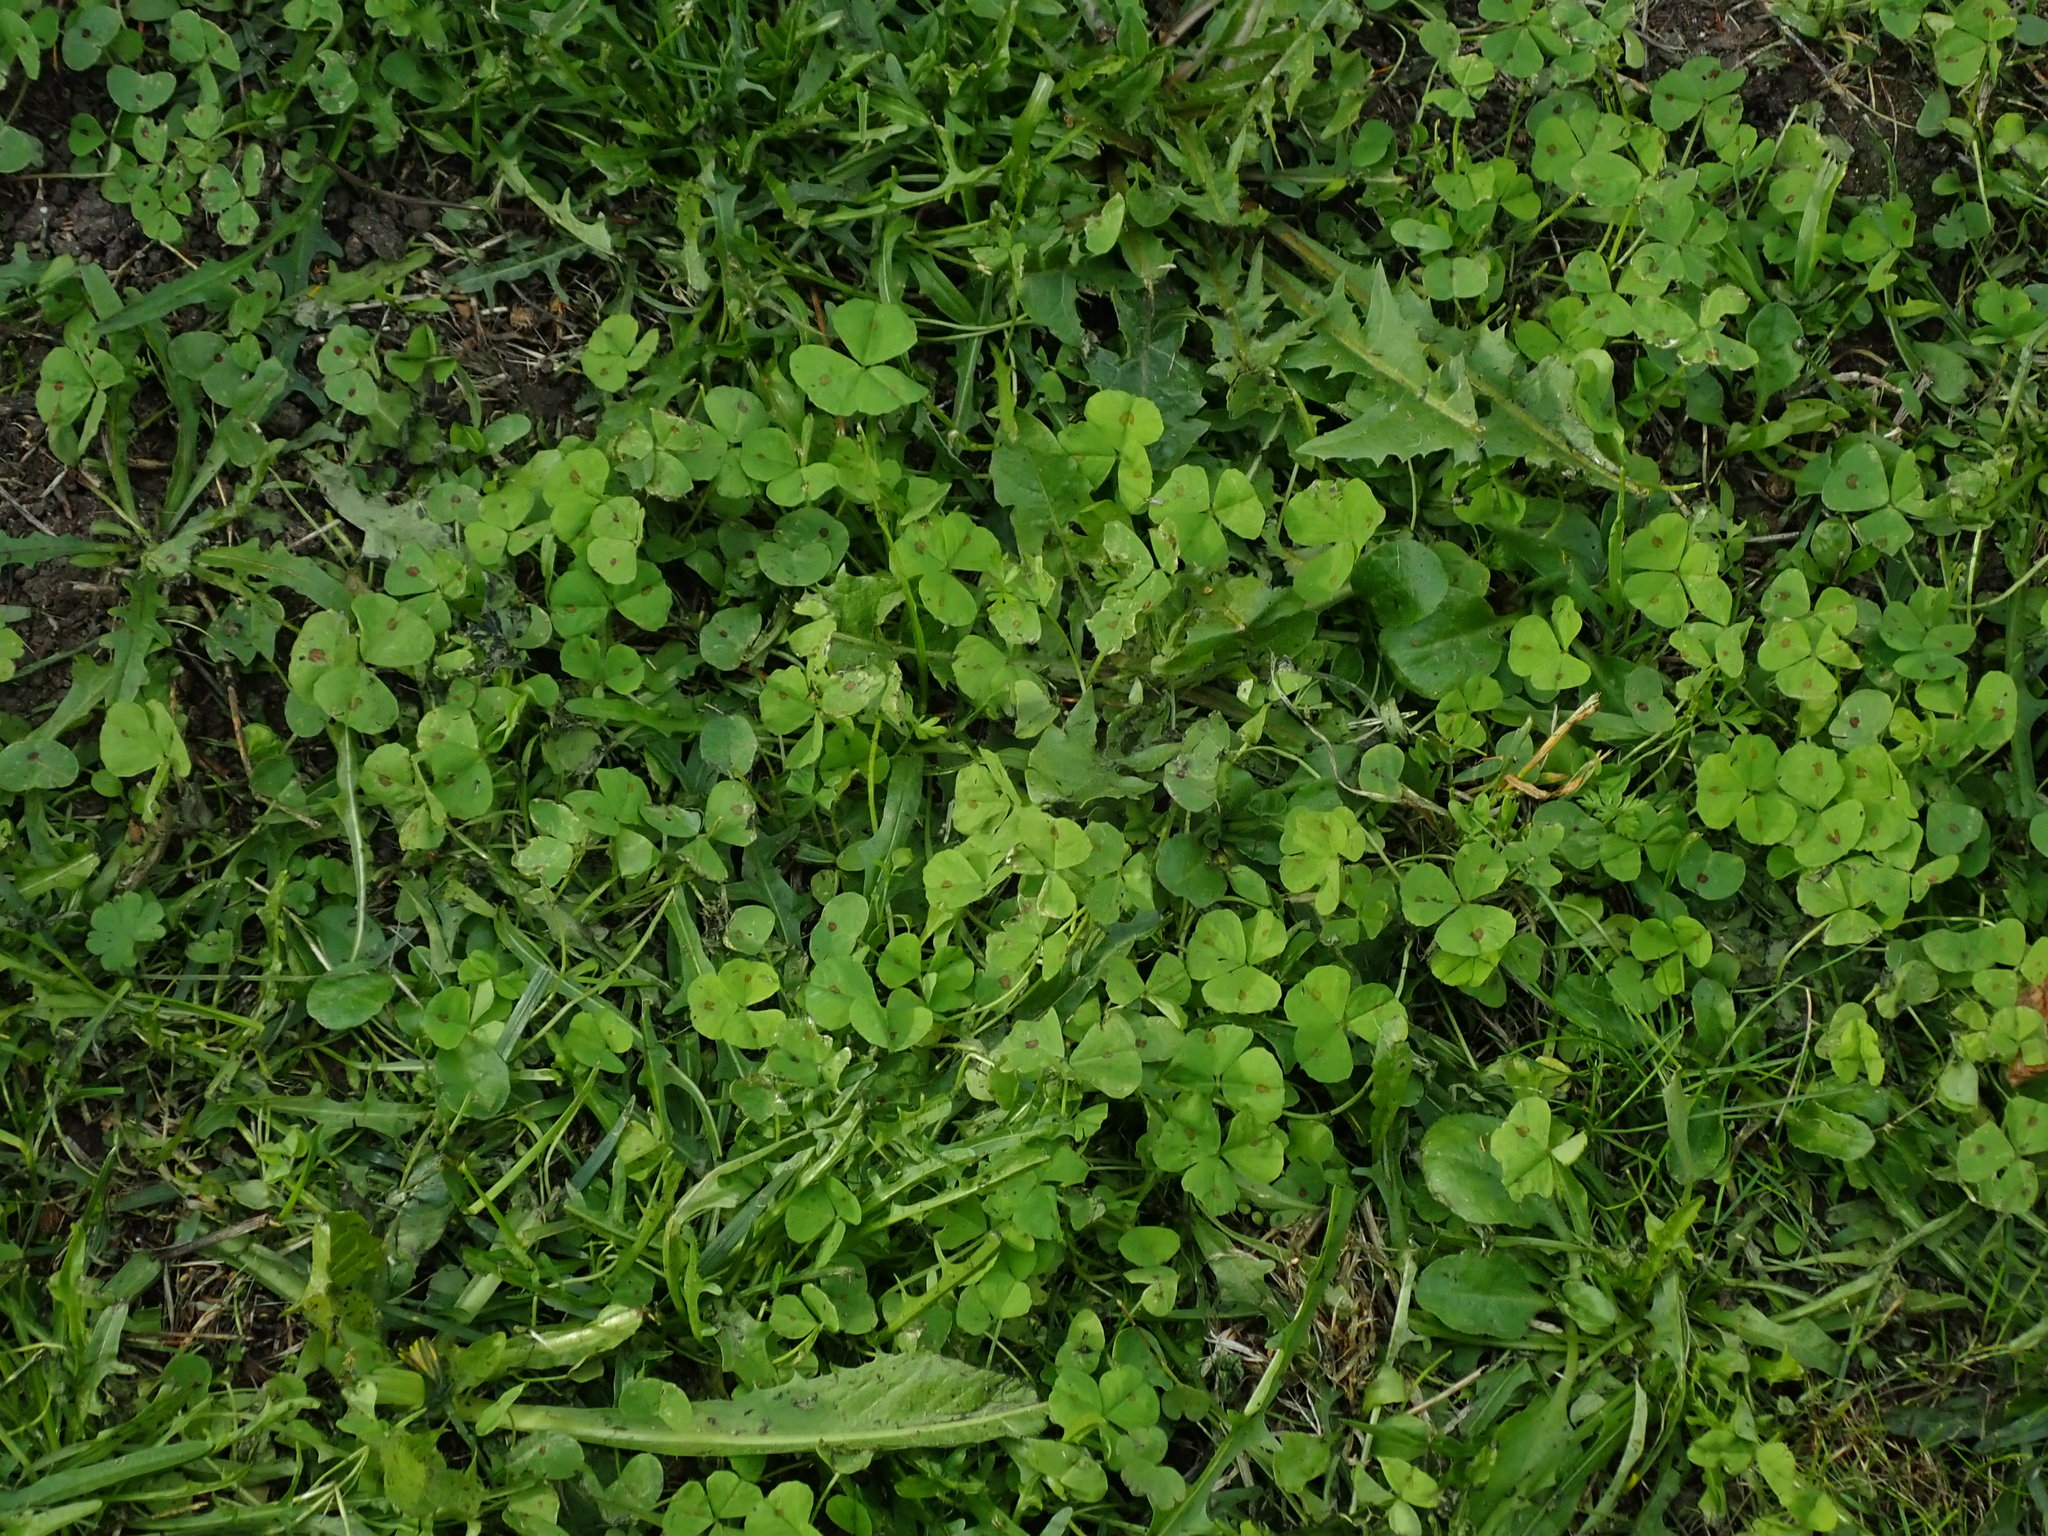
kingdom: Plantae
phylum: Tracheophyta
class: Magnoliopsida
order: Fabales
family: Fabaceae
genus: Medicago
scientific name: Medicago arabica
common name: Spotted medick
